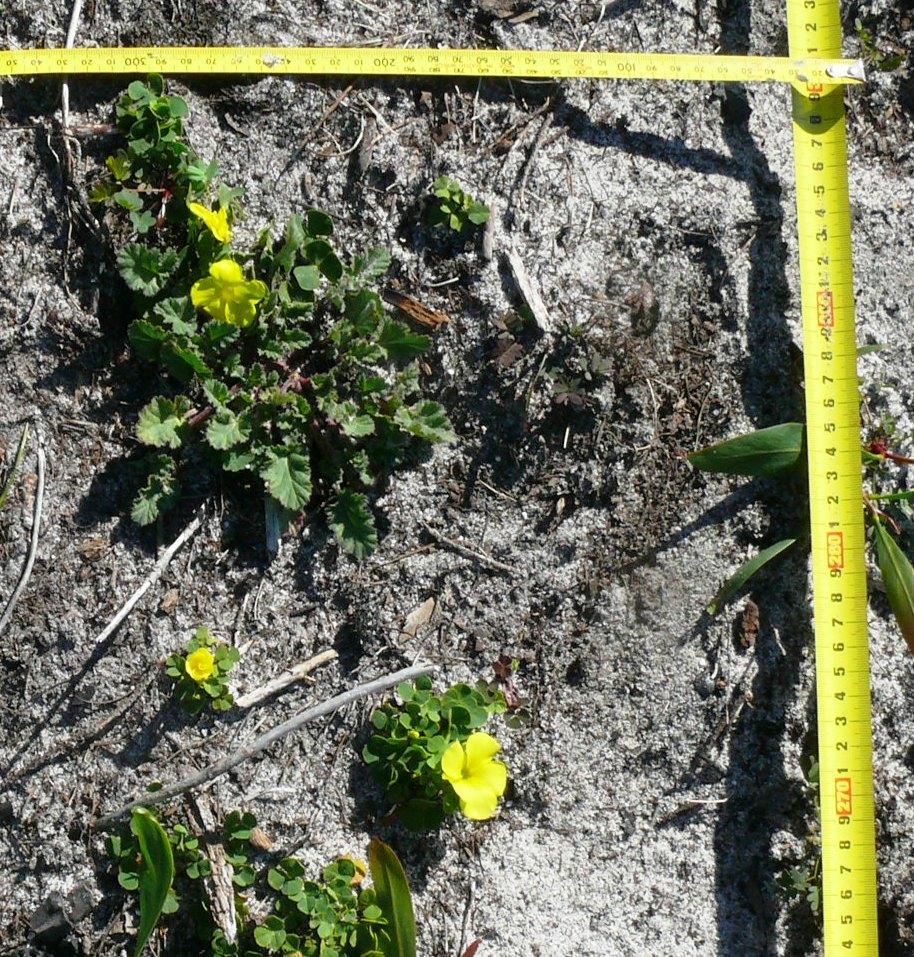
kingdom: Plantae
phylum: Tracheophyta
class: Magnoliopsida
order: Oxalidales
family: Oxalidaceae
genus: Oxalis
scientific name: Oxalis luteola
